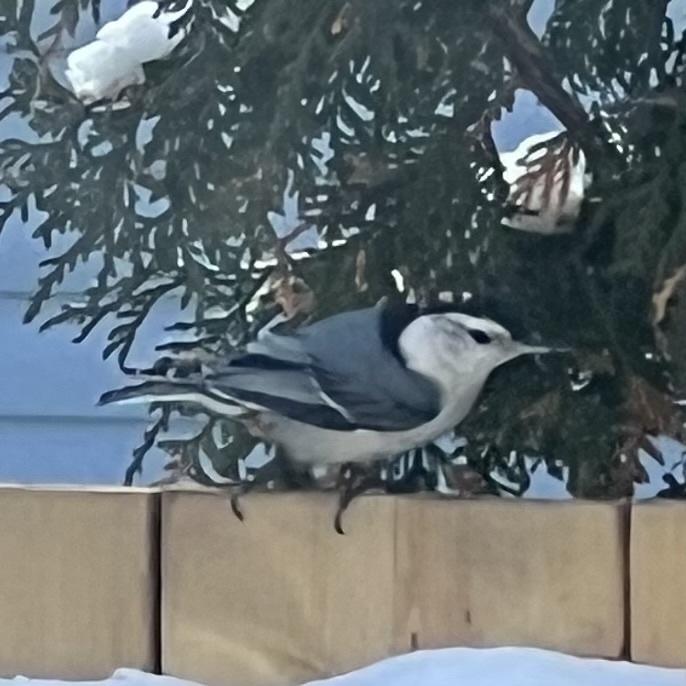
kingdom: Animalia
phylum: Chordata
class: Aves
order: Passeriformes
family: Sittidae
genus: Sitta
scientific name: Sitta carolinensis
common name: White-breasted nuthatch
